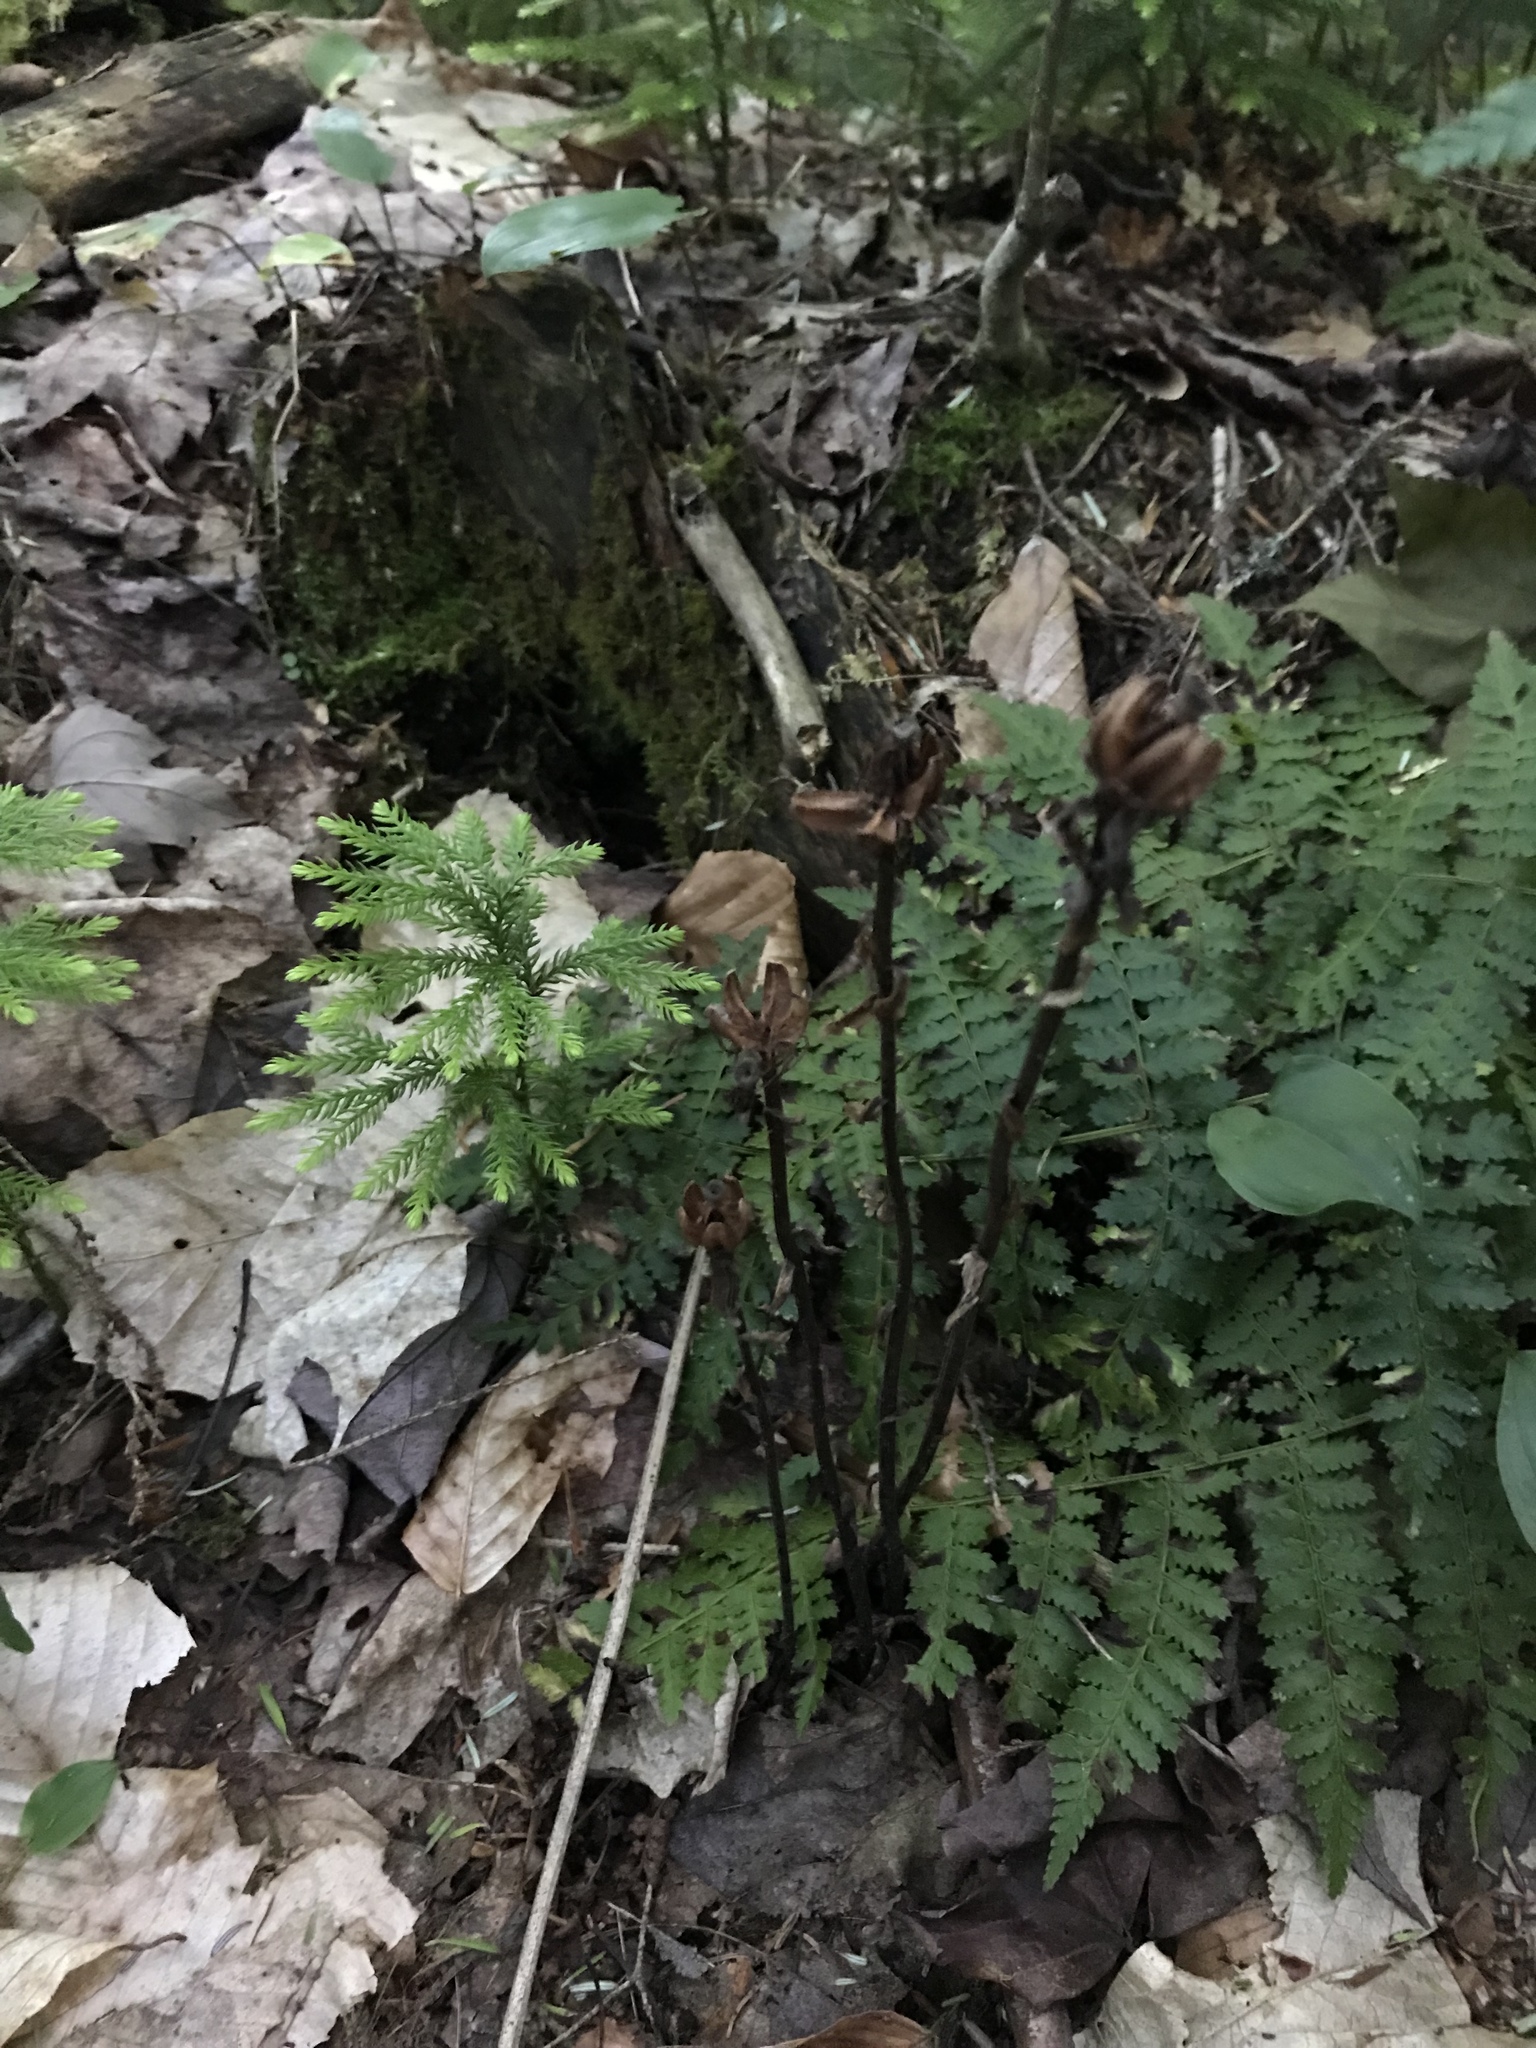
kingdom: Plantae
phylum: Tracheophyta
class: Magnoliopsida
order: Ericales
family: Ericaceae
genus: Monotropa
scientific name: Monotropa uniflora
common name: Convulsion root
